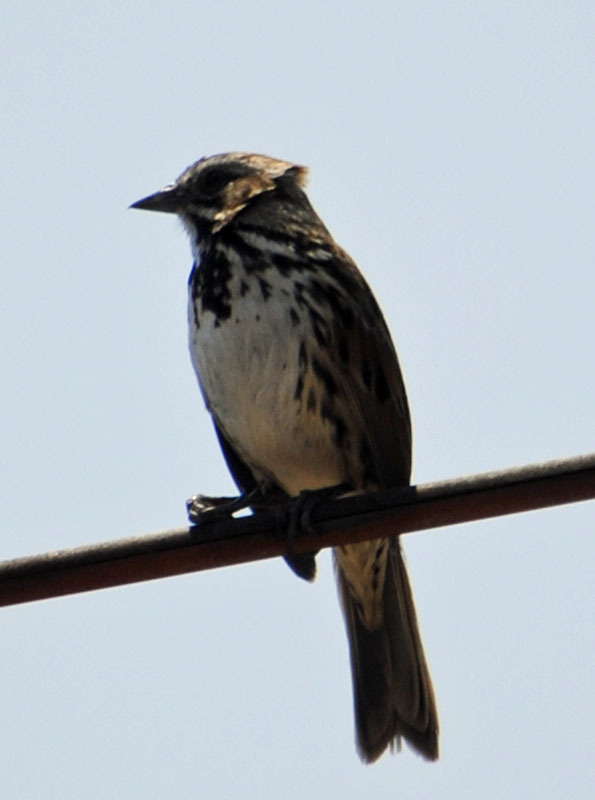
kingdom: Animalia
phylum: Chordata
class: Aves
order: Passeriformes
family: Passerellidae
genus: Melospiza
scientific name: Melospiza melodia
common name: Song sparrow
